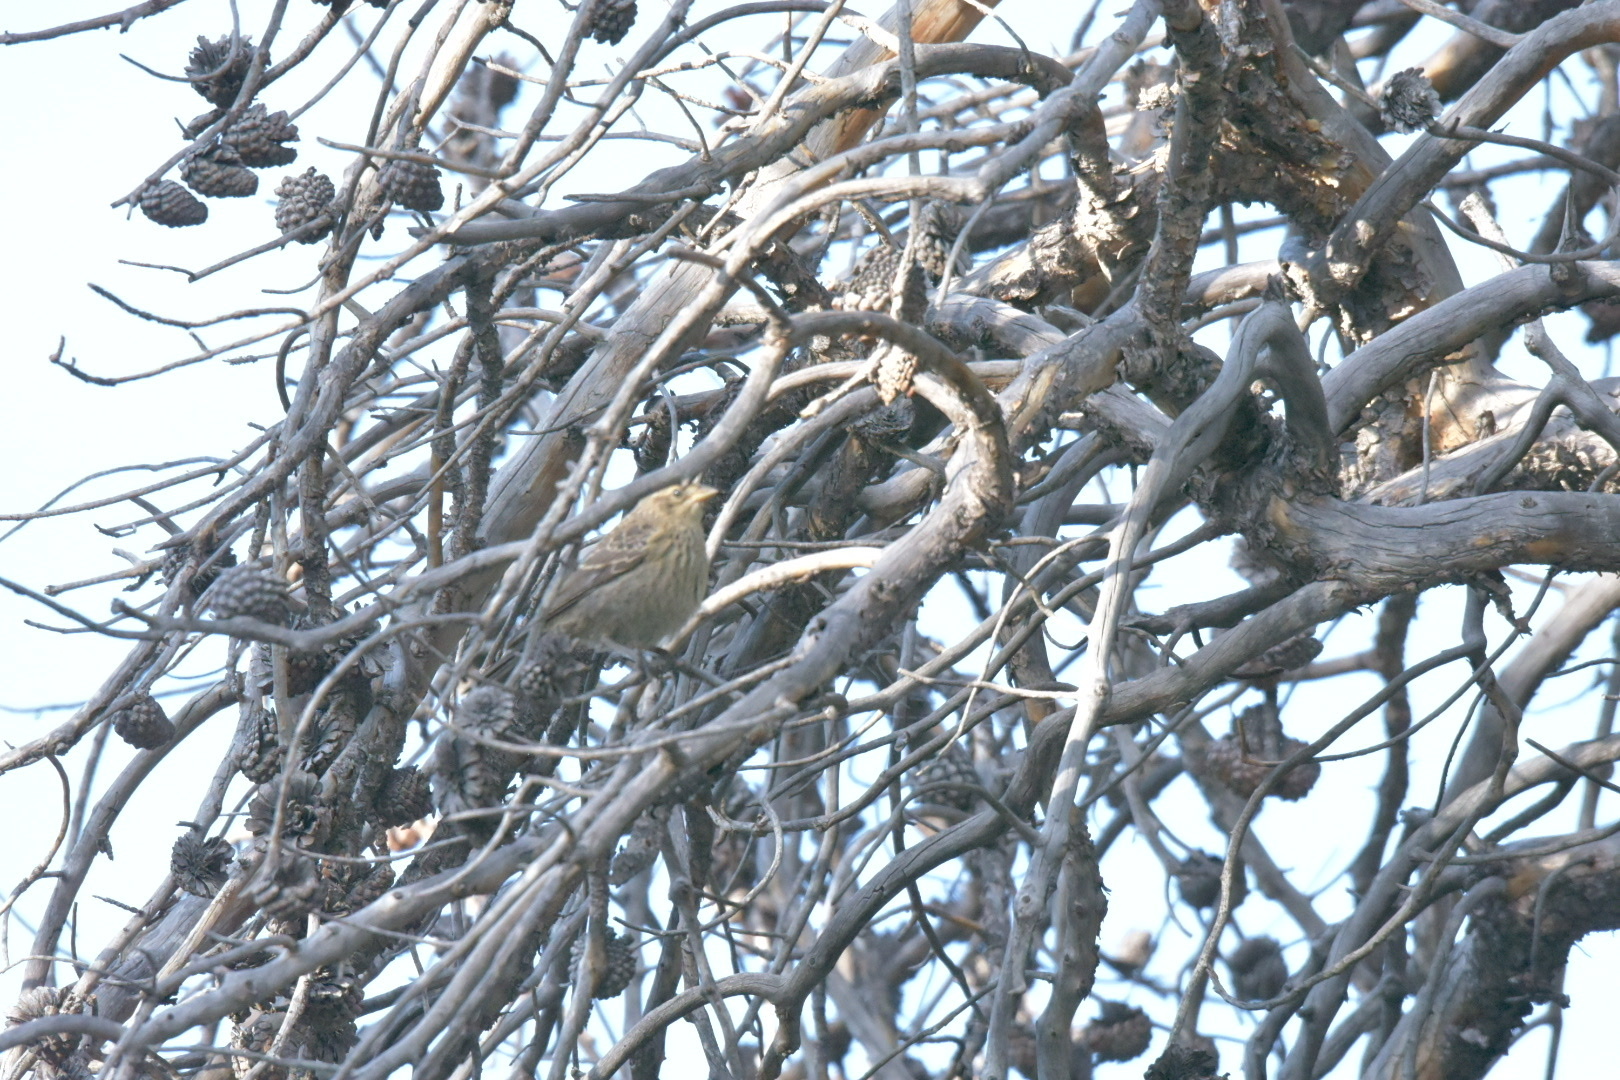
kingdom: Animalia
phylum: Chordata
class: Aves
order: Passeriformes
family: Icteridae
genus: Molothrus
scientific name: Molothrus ater
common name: Brown-headed cowbird
